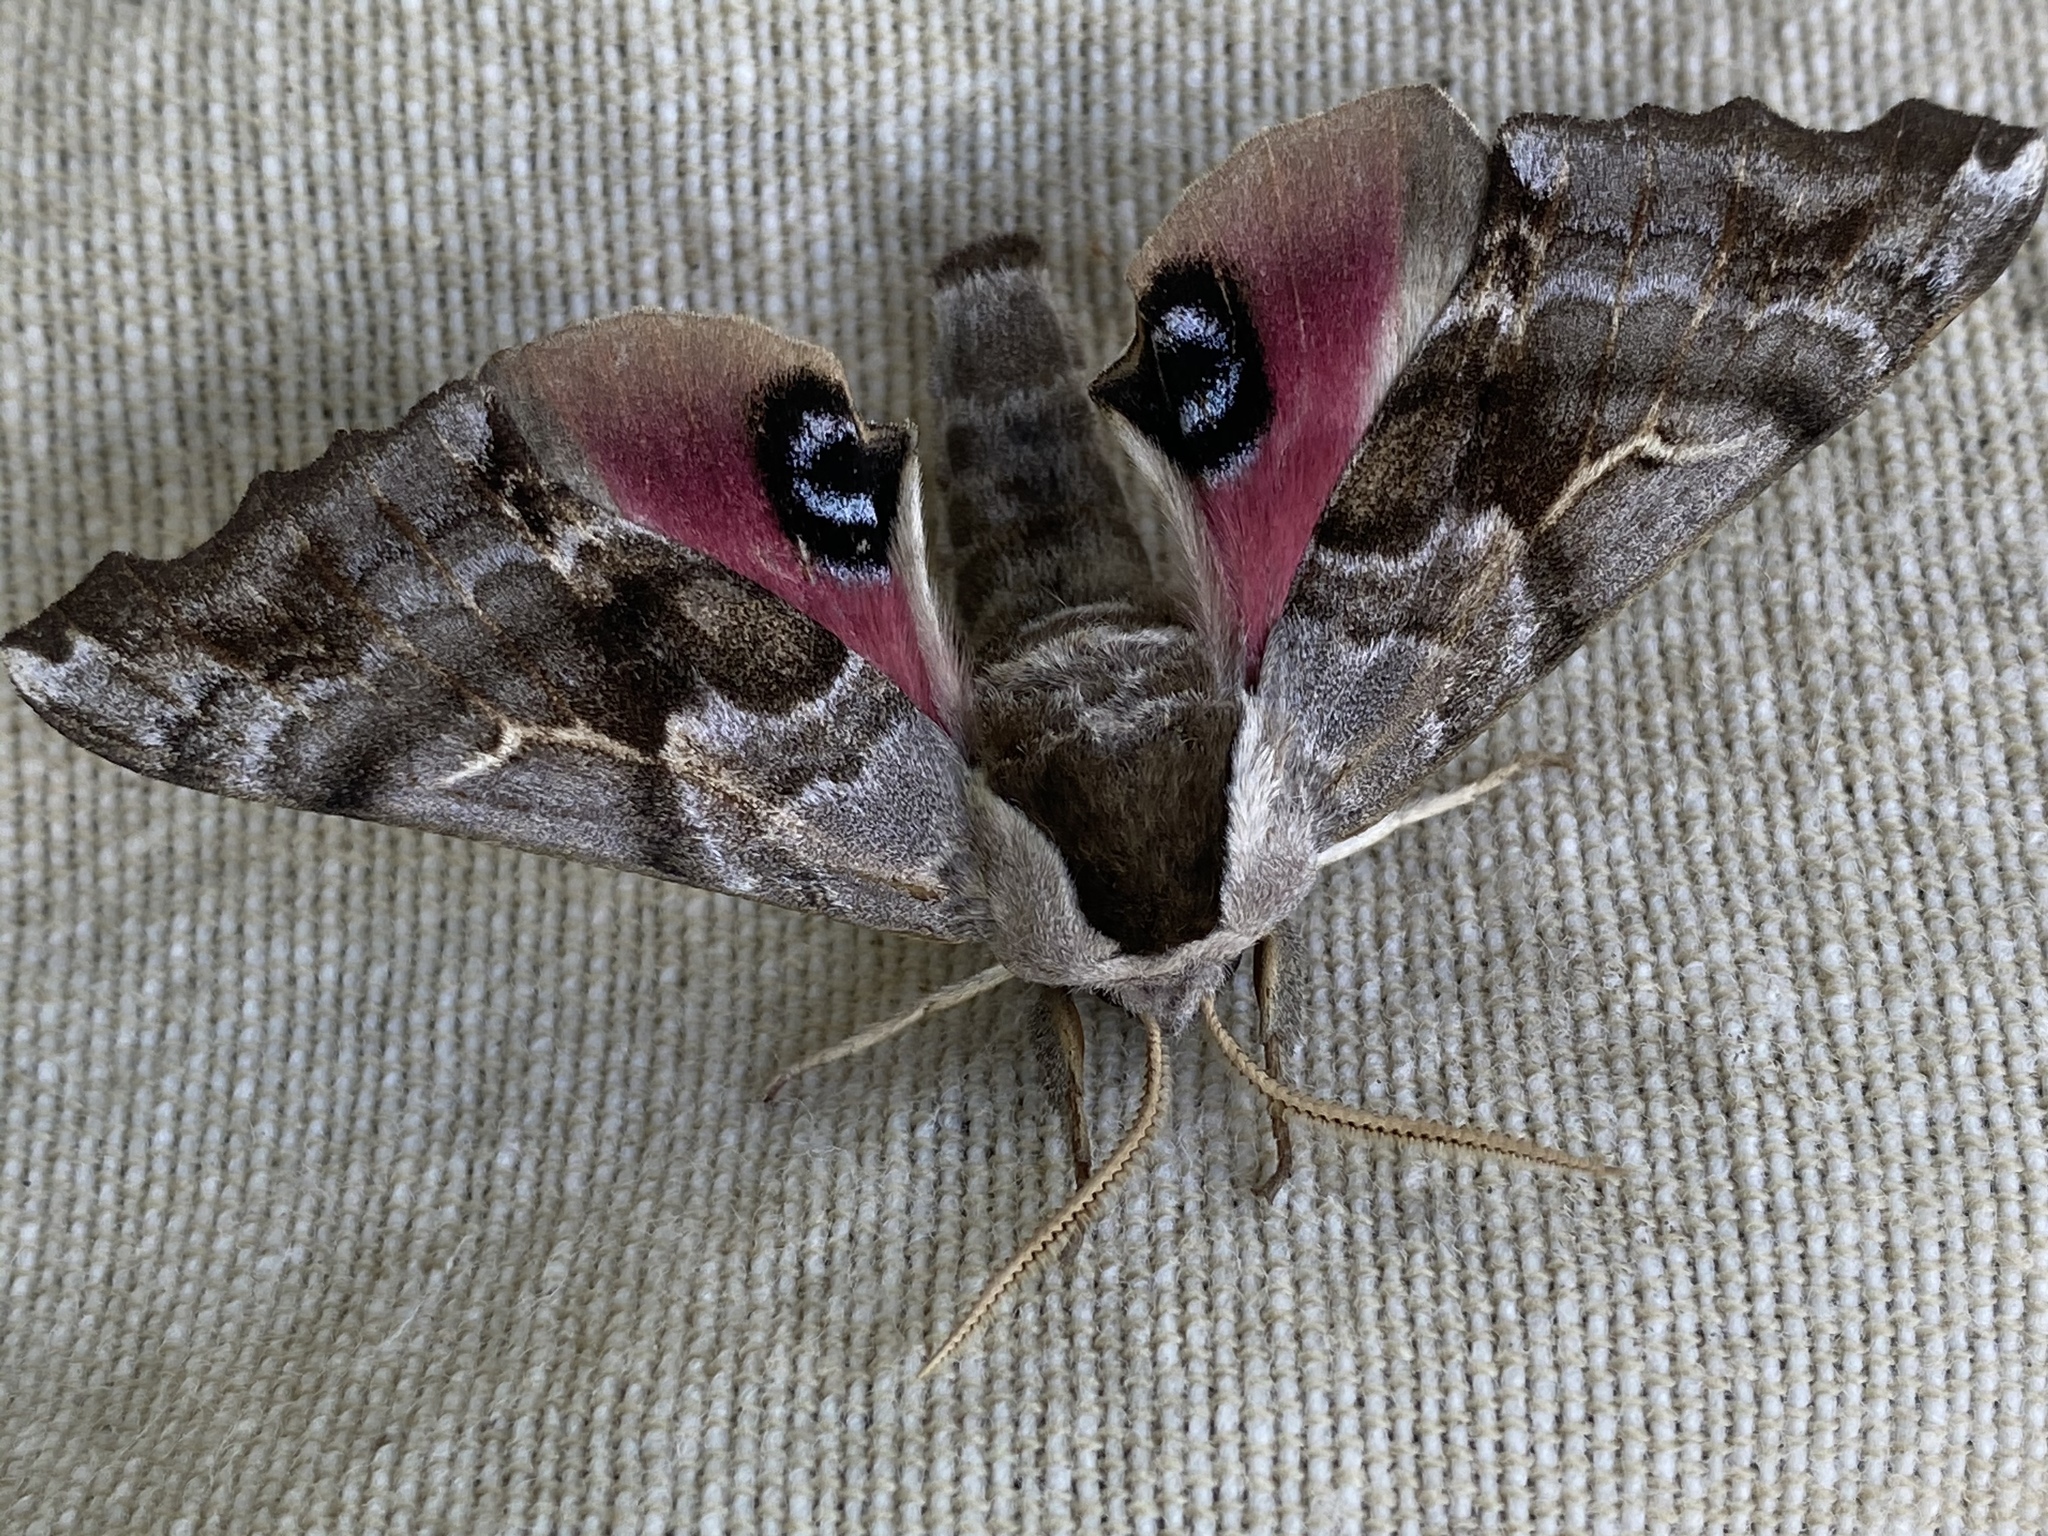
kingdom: Animalia
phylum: Arthropoda
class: Insecta
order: Lepidoptera
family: Sphingidae
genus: Smerinthus
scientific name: Smerinthus cerisyi
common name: Cerisy's sphinx moth
